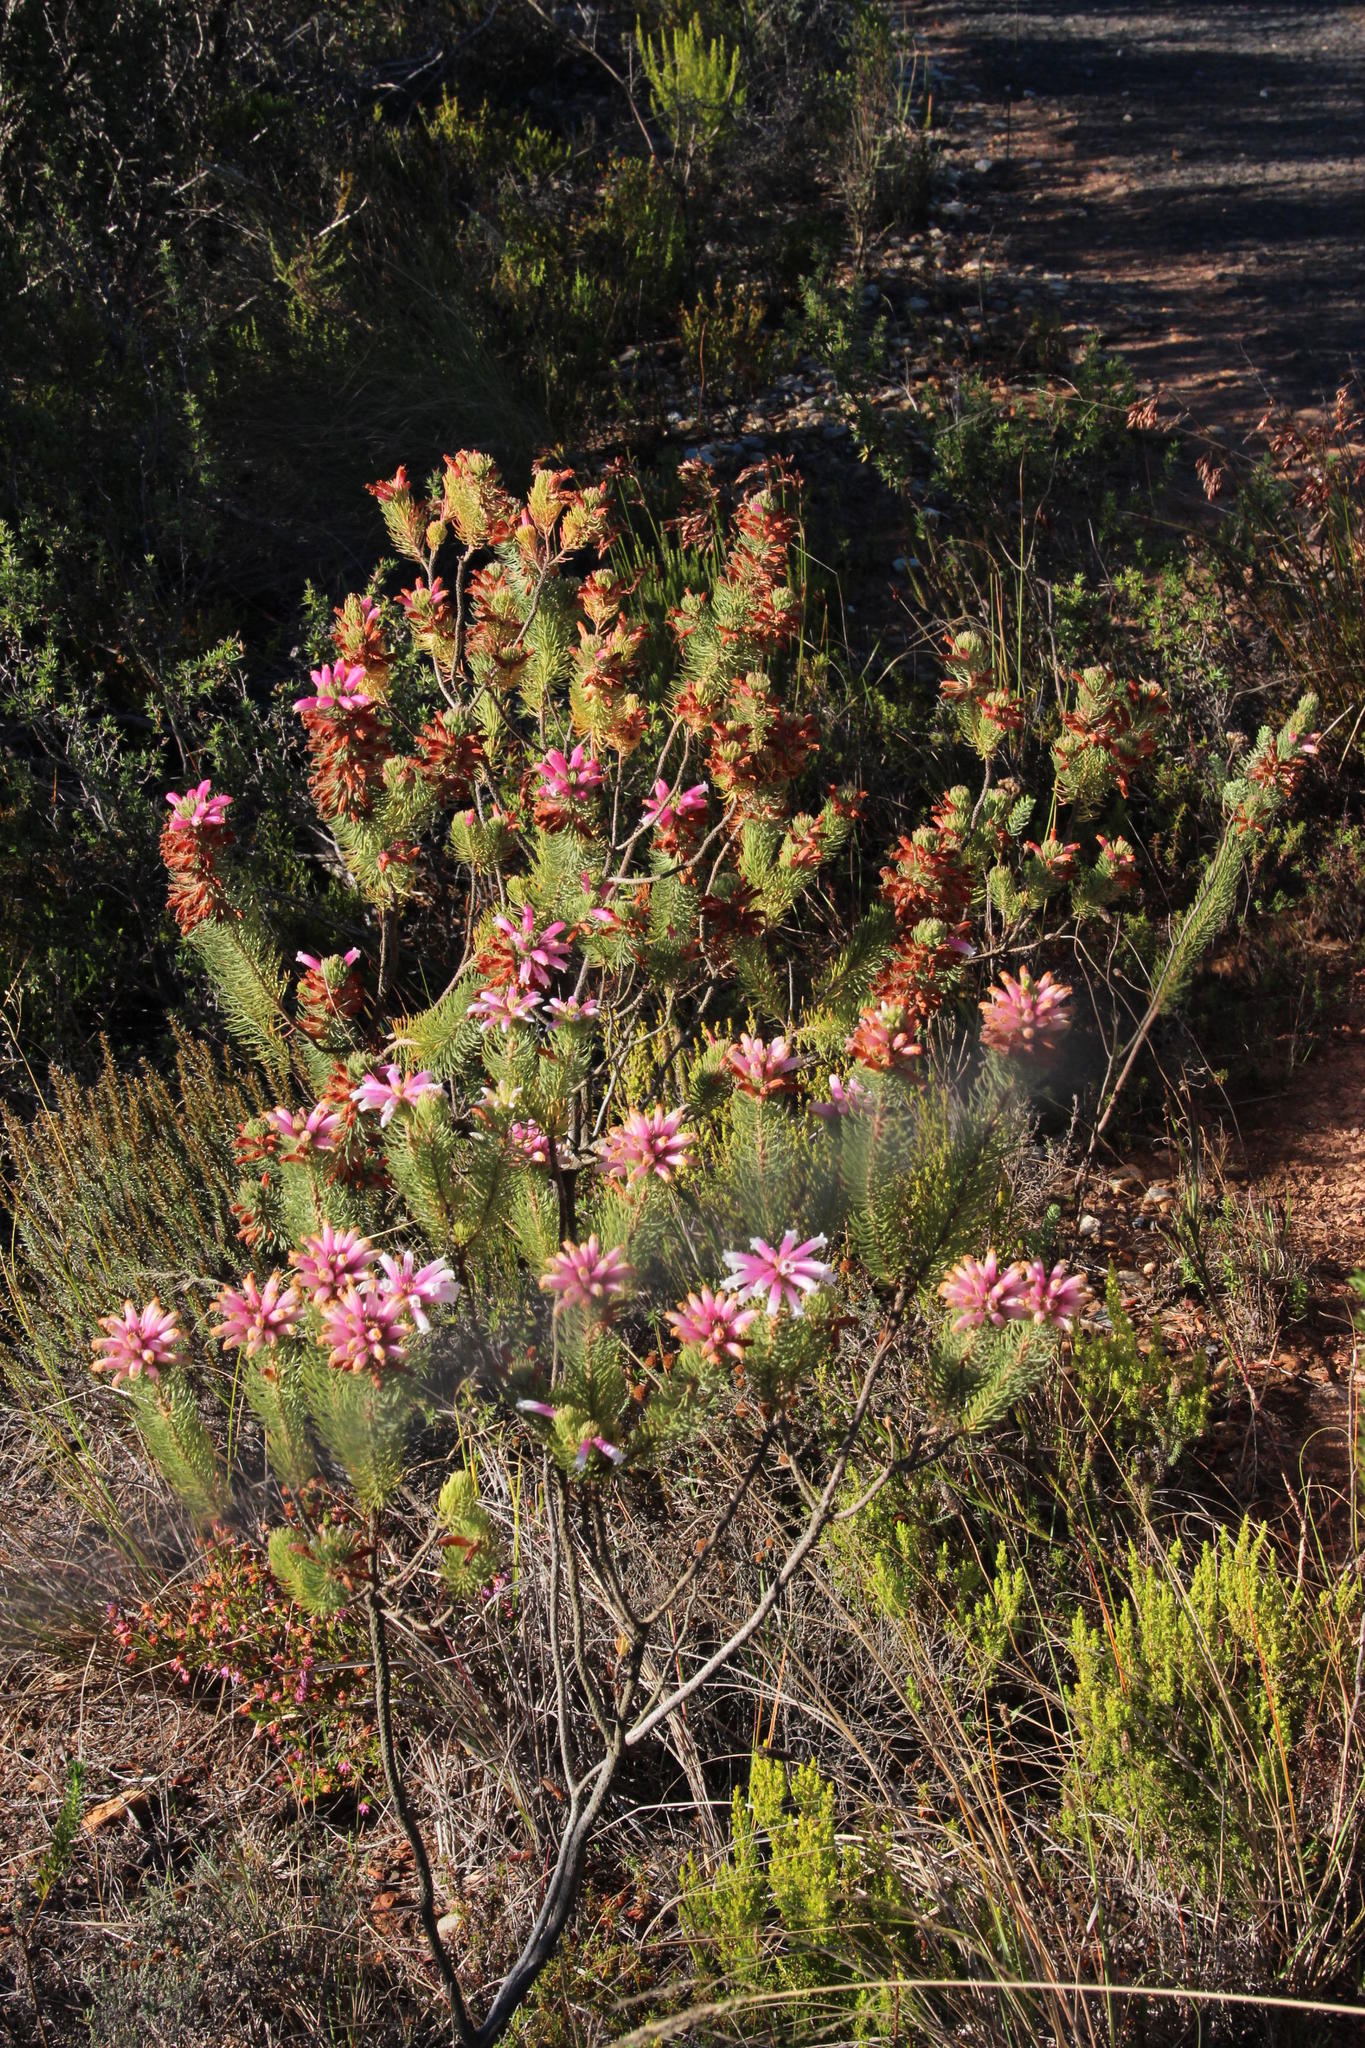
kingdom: Plantae
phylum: Tracheophyta
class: Magnoliopsida
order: Ericales
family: Ericaceae
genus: Erica
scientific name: Erica viscaria
